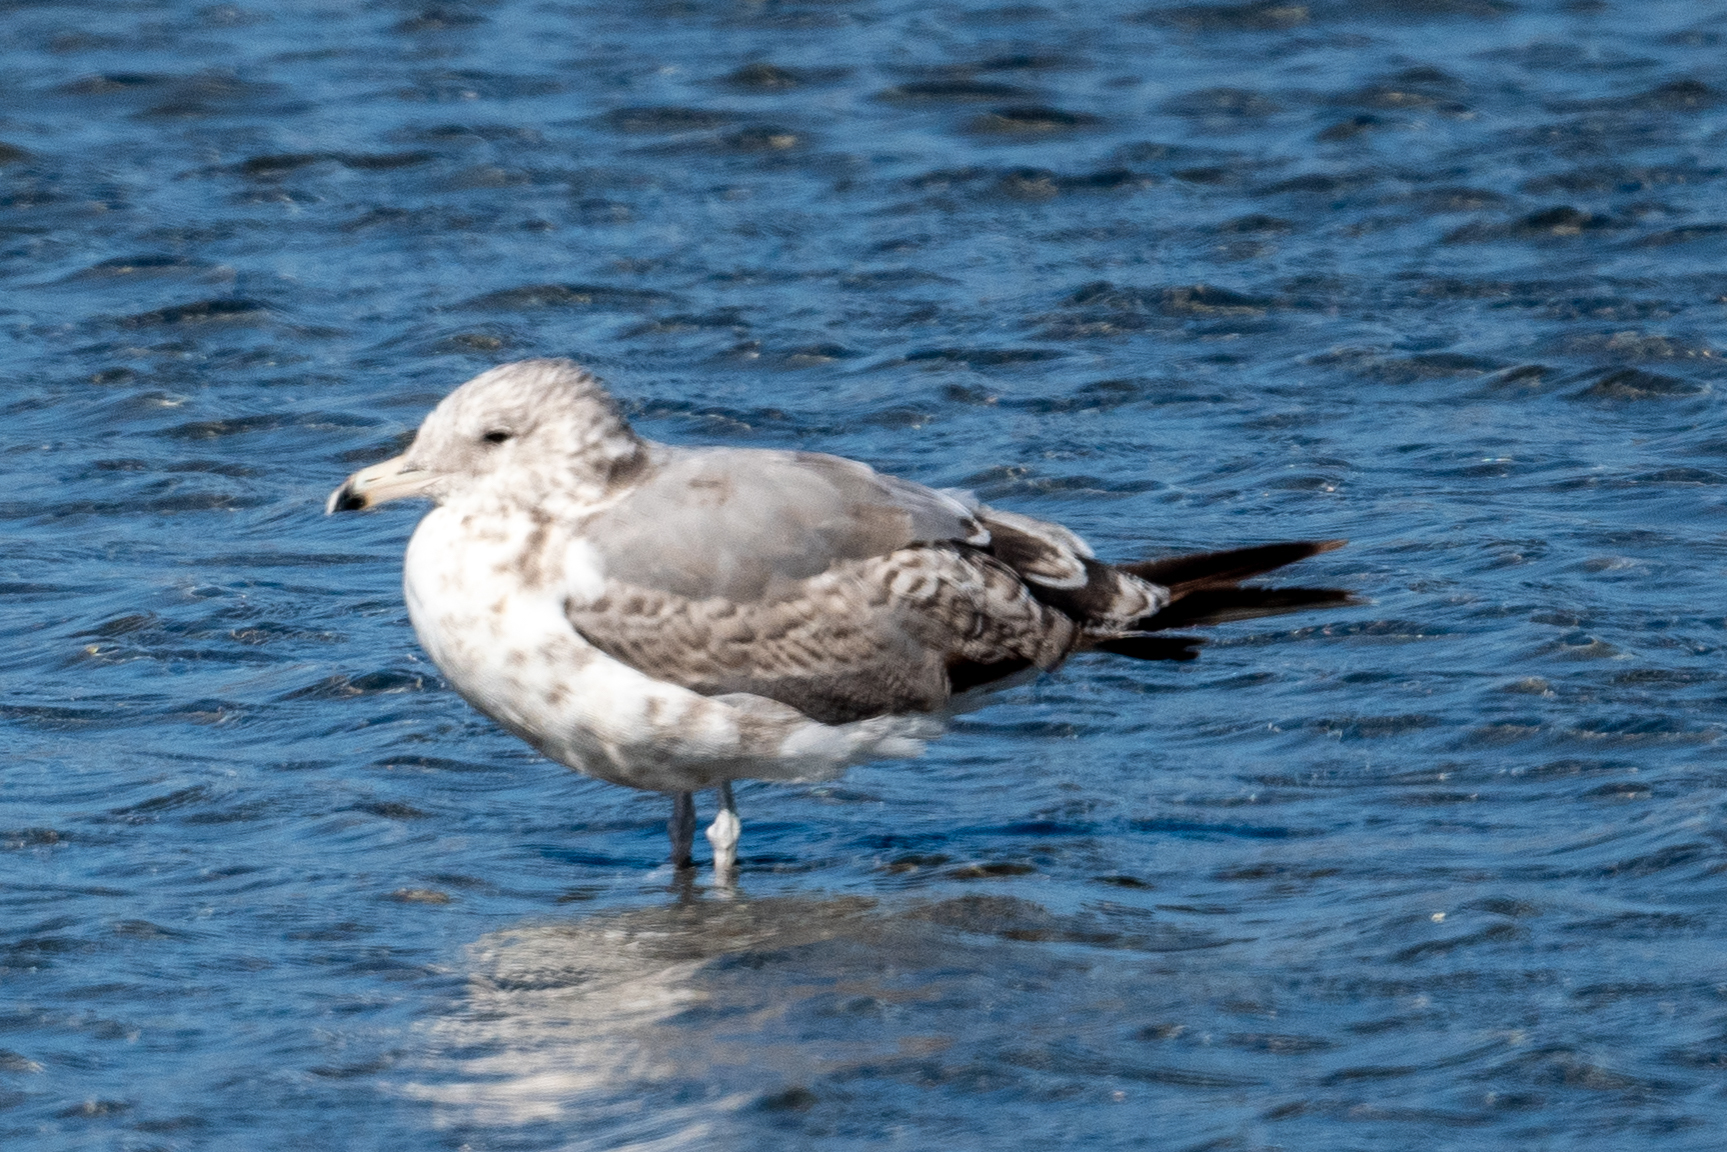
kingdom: Animalia
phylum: Chordata
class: Aves
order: Charadriiformes
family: Laridae
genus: Larus
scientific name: Larus californicus
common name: California gull
